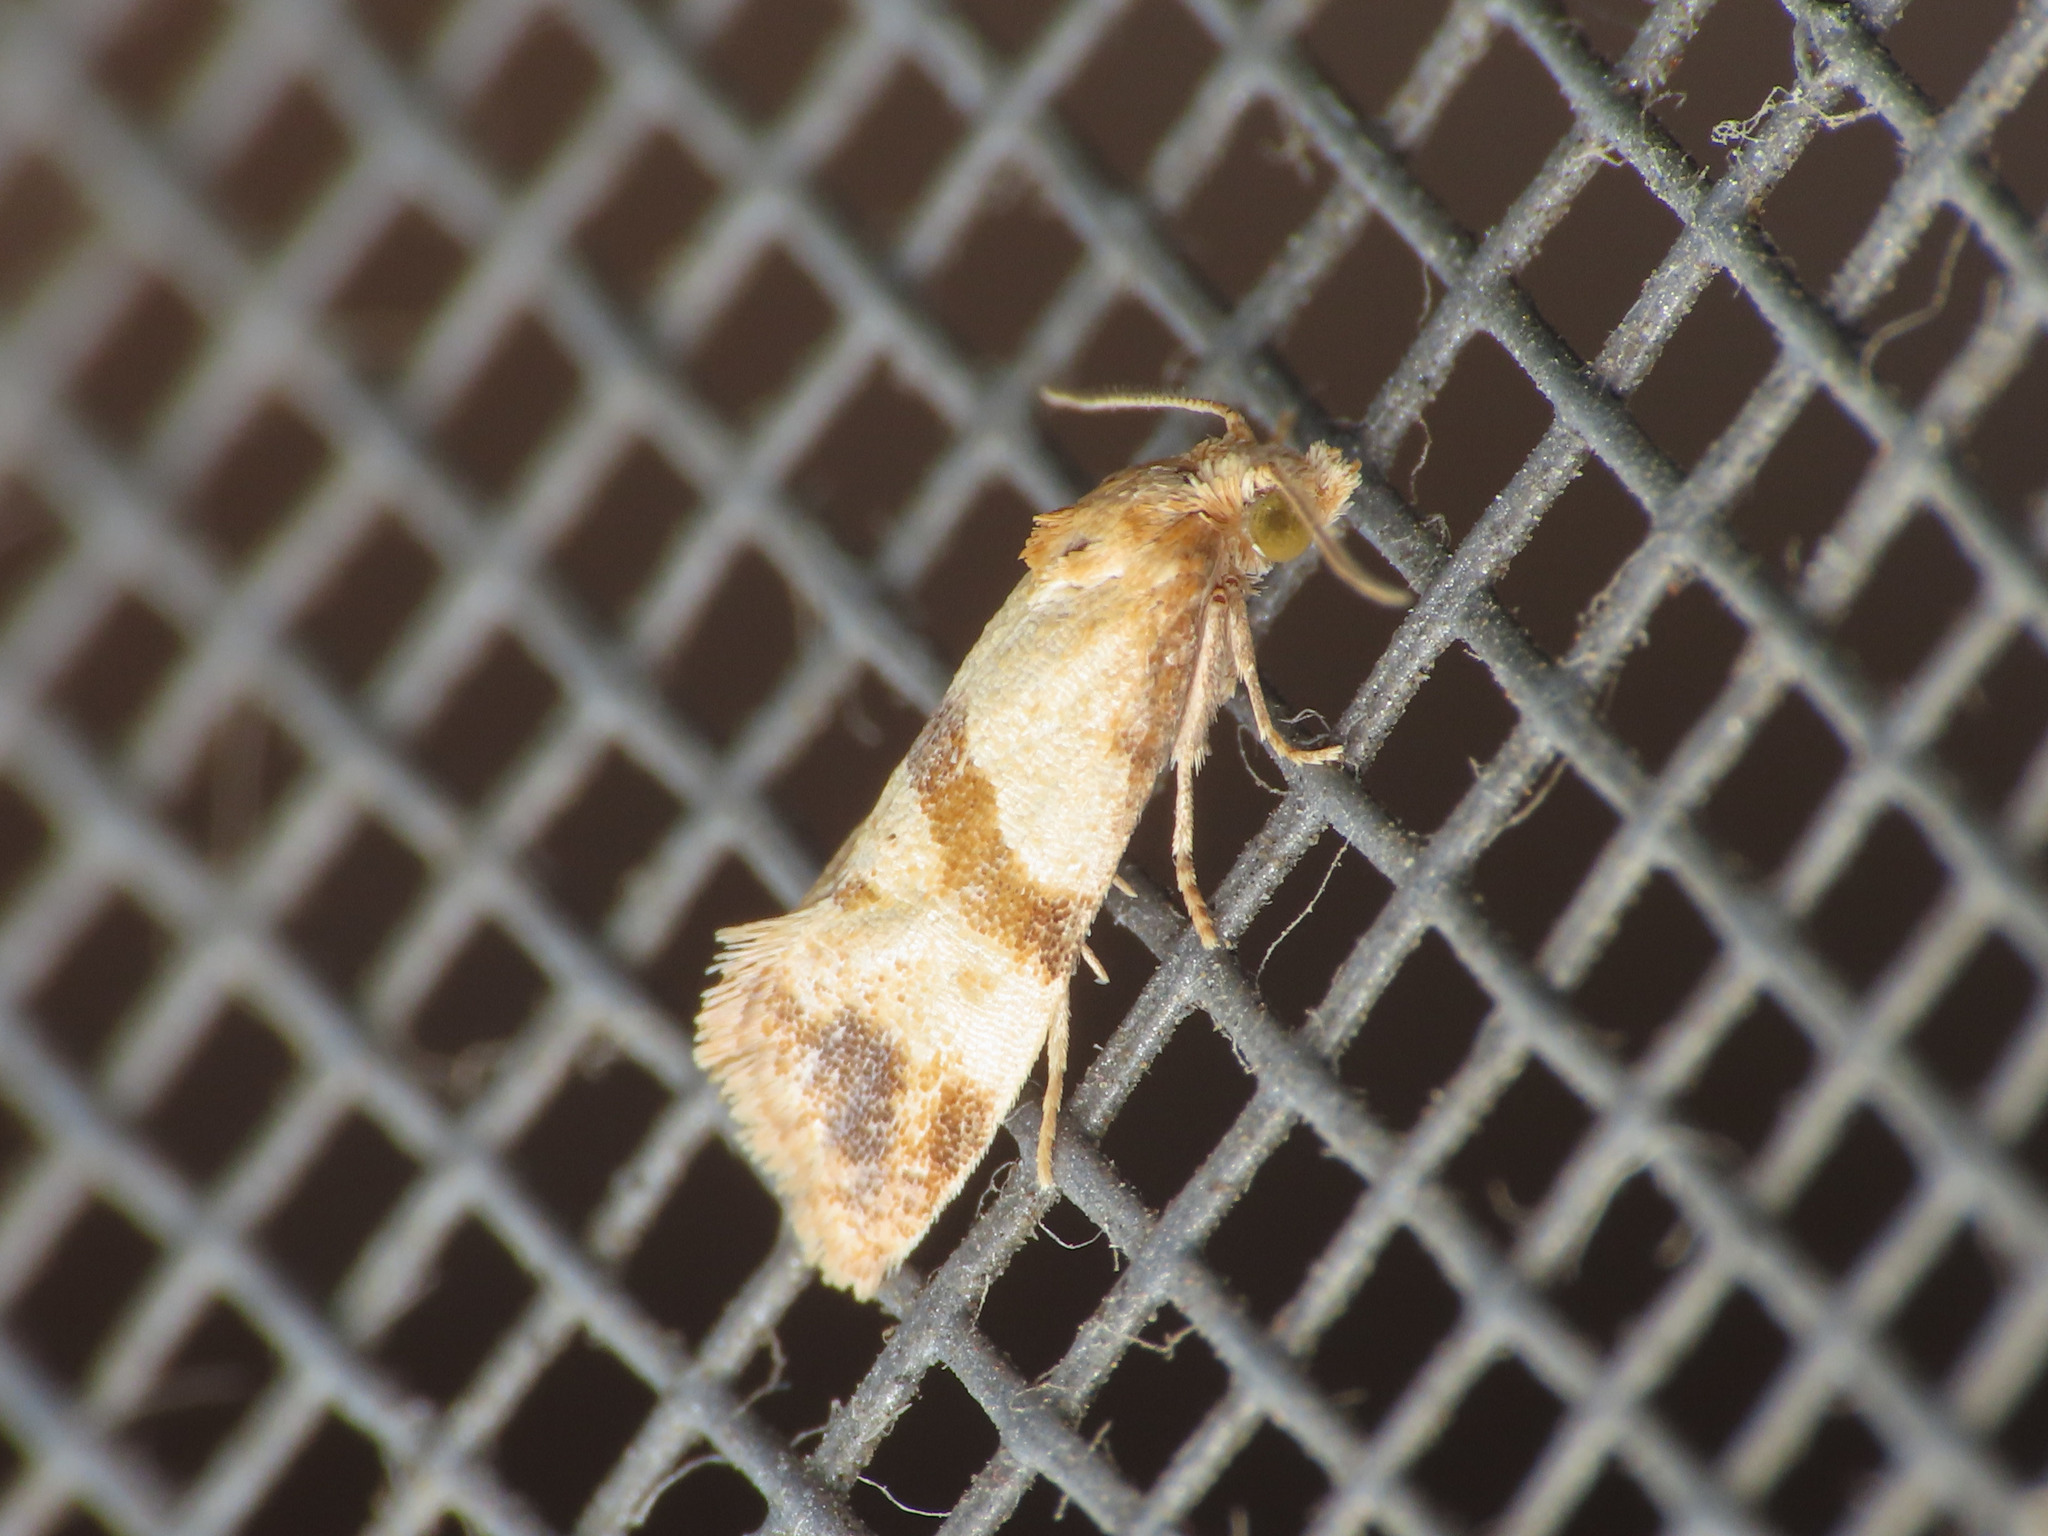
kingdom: Animalia
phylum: Arthropoda
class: Insecta
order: Lepidoptera
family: Tortricidae
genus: Phalonidia
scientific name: Phalonidia contractana
